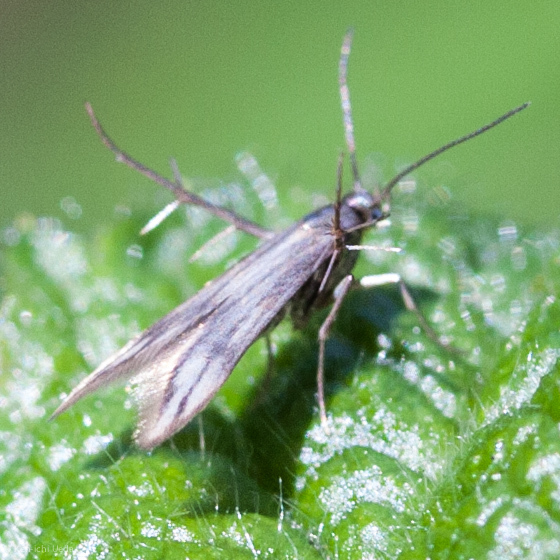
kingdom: Animalia
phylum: Arthropoda
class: Insecta
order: Lepidoptera
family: Schreckensteiniidae
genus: Schreckensteinia
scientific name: Schreckensteinia festaliella
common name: Blackberry skeletonizer
